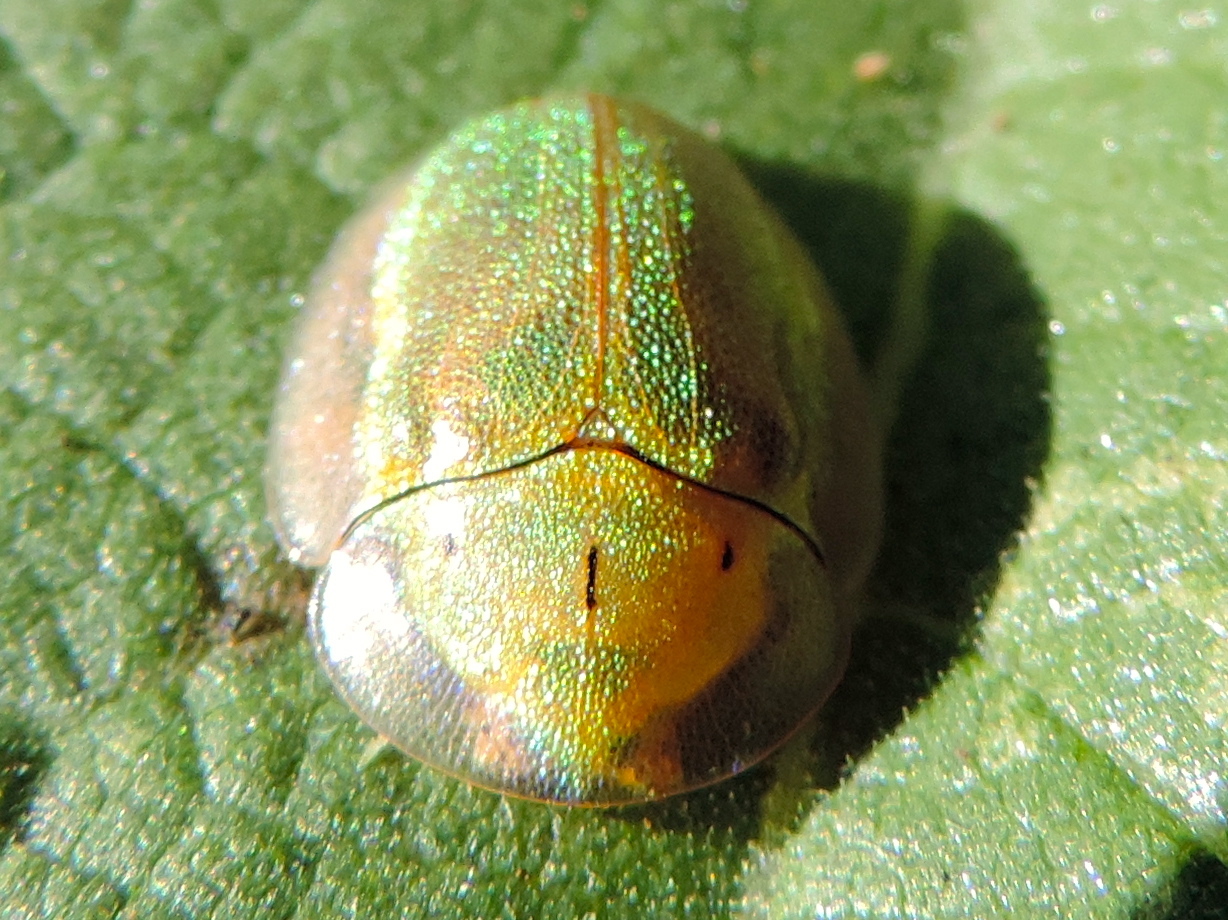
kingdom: Animalia
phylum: Arthropoda
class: Insecta
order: Coleoptera
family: Chrysomelidae
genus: Physonota
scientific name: Physonota arizonae
